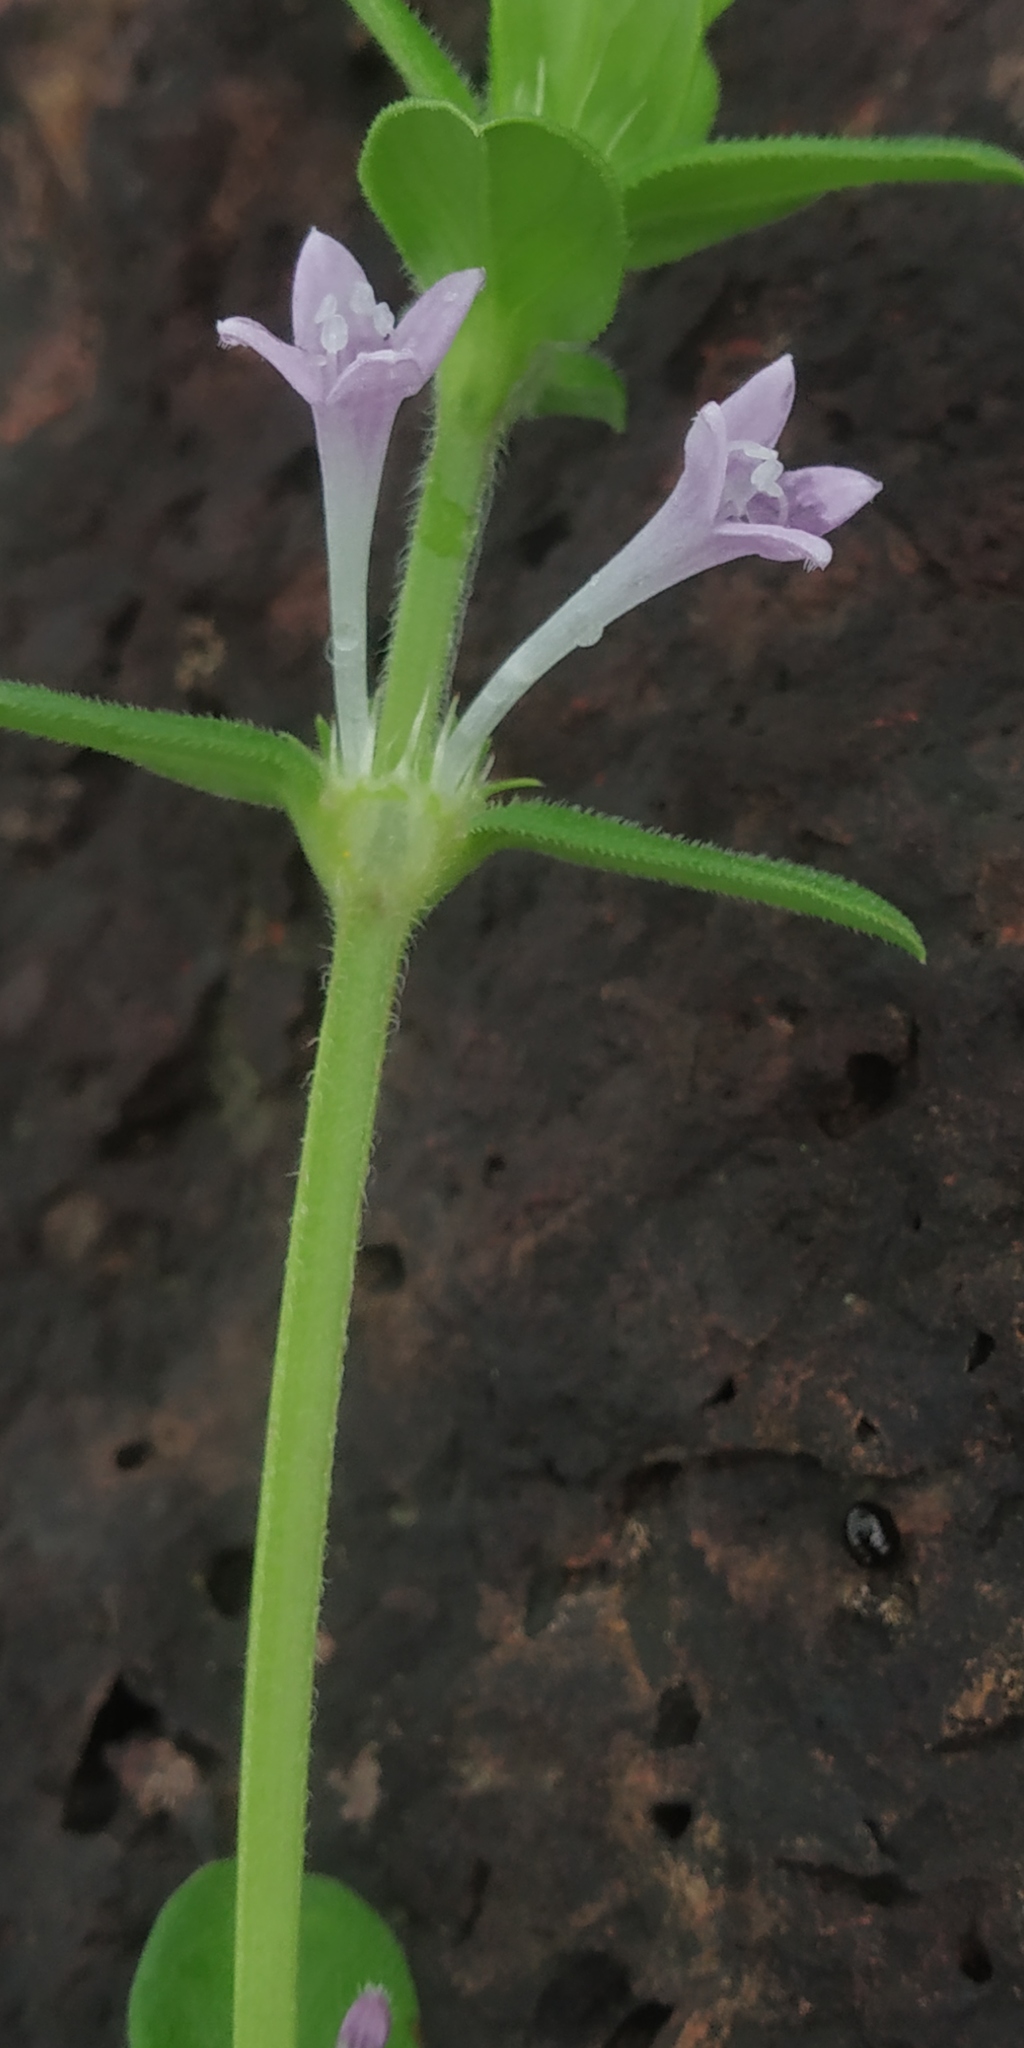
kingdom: Plantae
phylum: Tracheophyta
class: Magnoliopsida
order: Gentianales
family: Rubiaceae
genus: Spermacoce
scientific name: Spermacoce articularis
